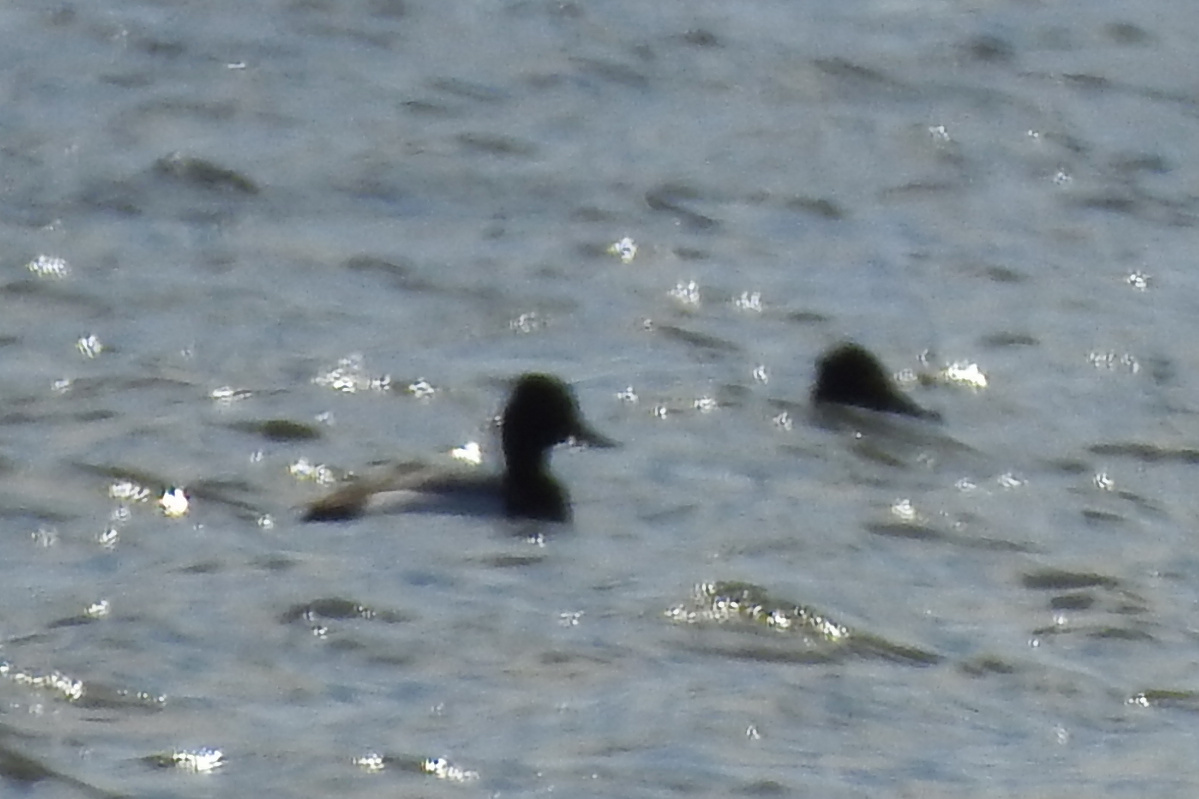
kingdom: Animalia
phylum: Chordata
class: Aves
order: Anseriformes
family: Anatidae
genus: Aythya
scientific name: Aythya affinis
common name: Lesser scaup
